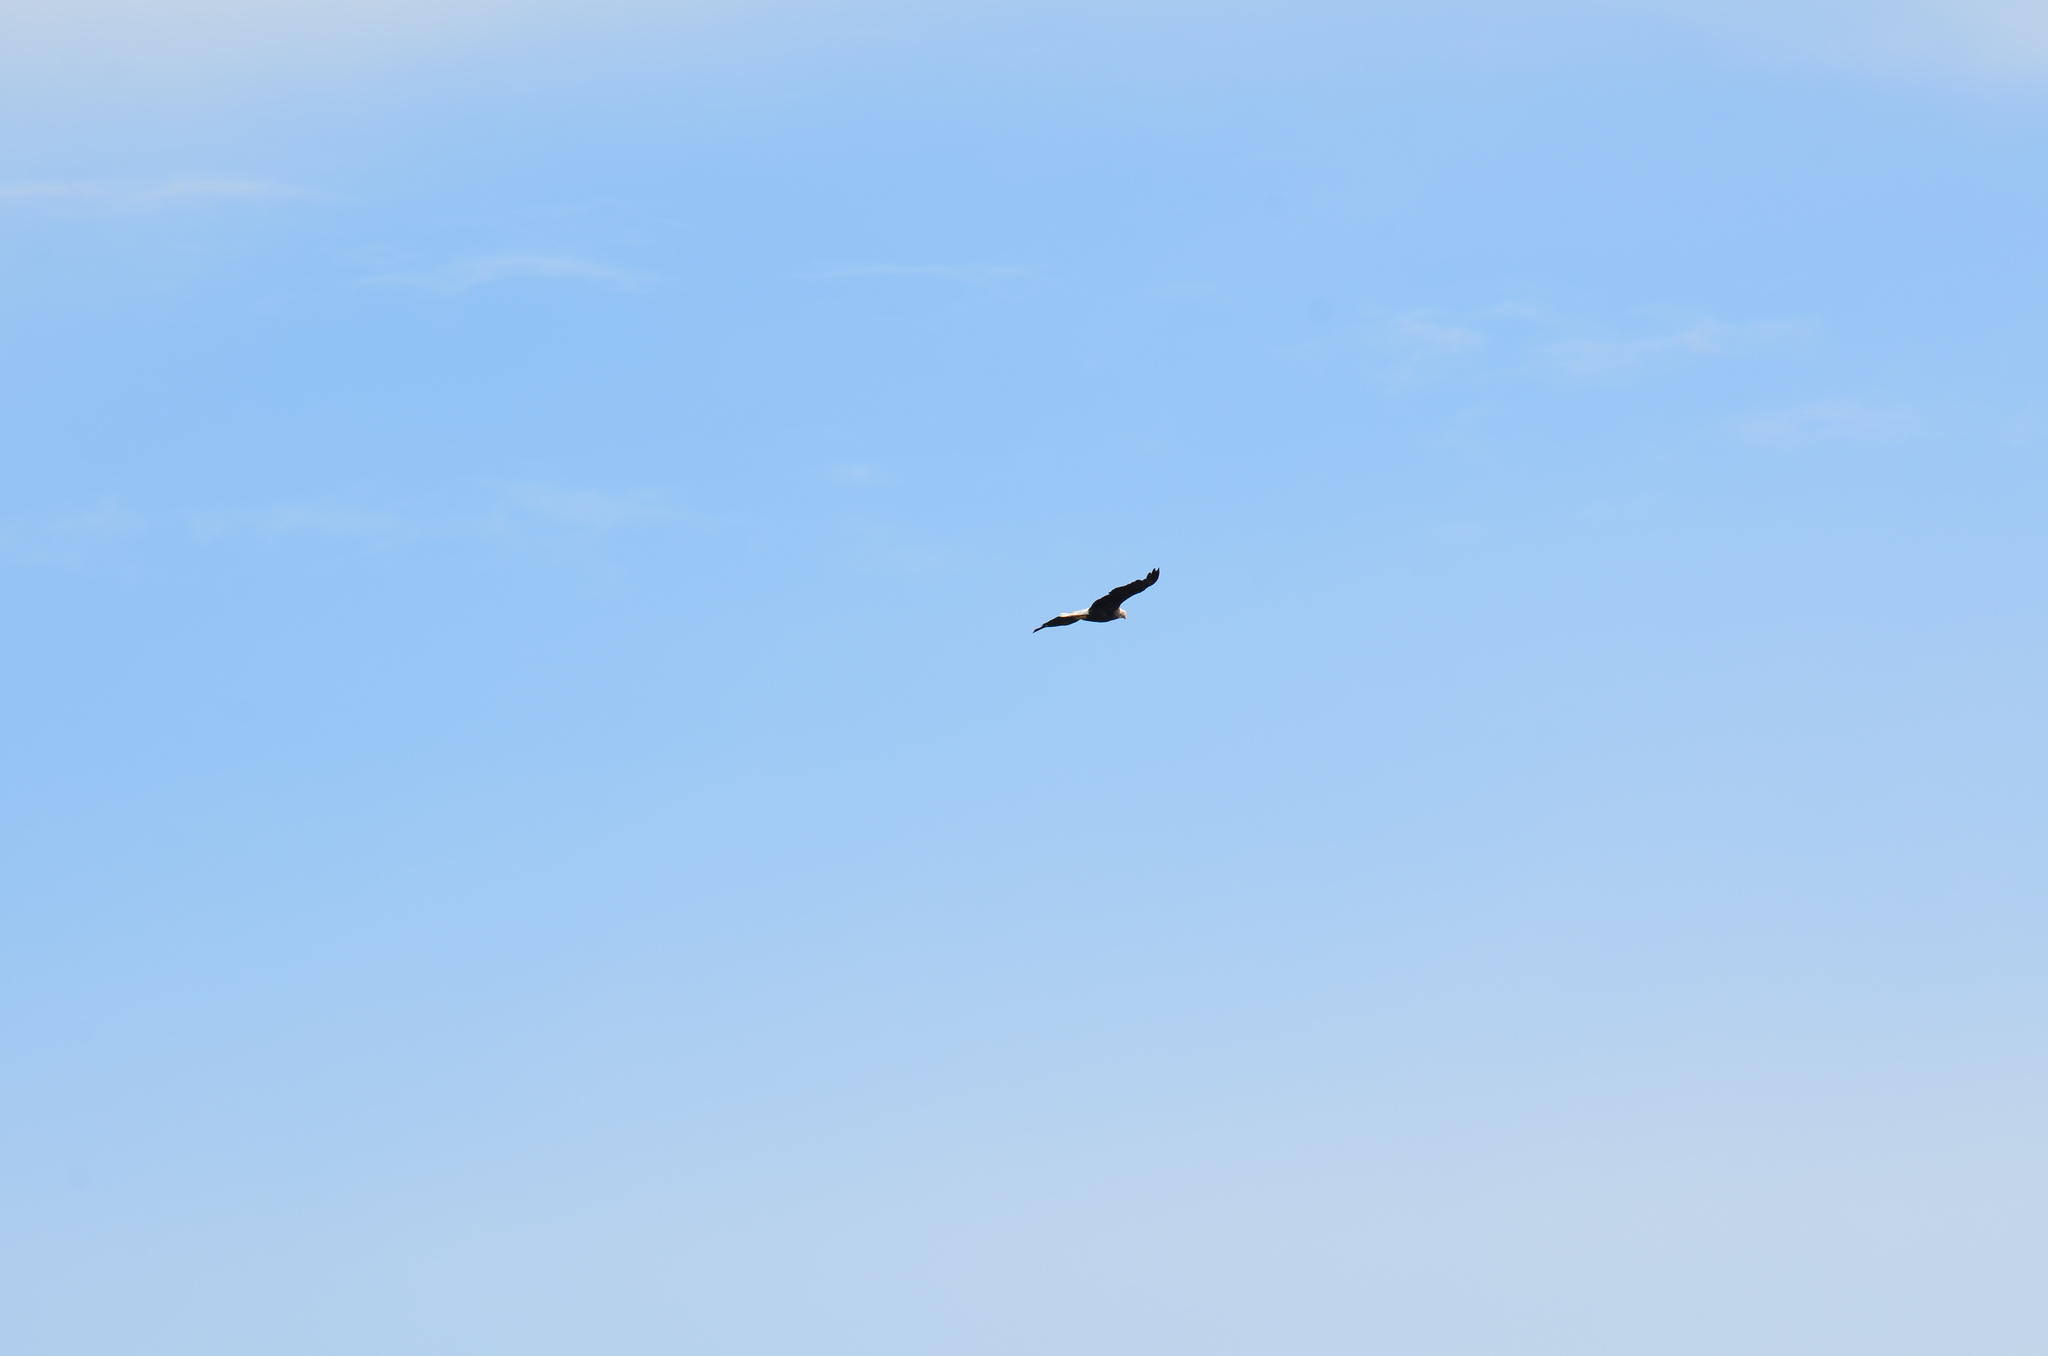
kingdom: Animalia
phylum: Chordata
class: Aves
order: Accipitriformes
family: Accipitridae
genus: Haliaeetus
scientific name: Haliaeetus leucocephalus
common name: Bald eagle
